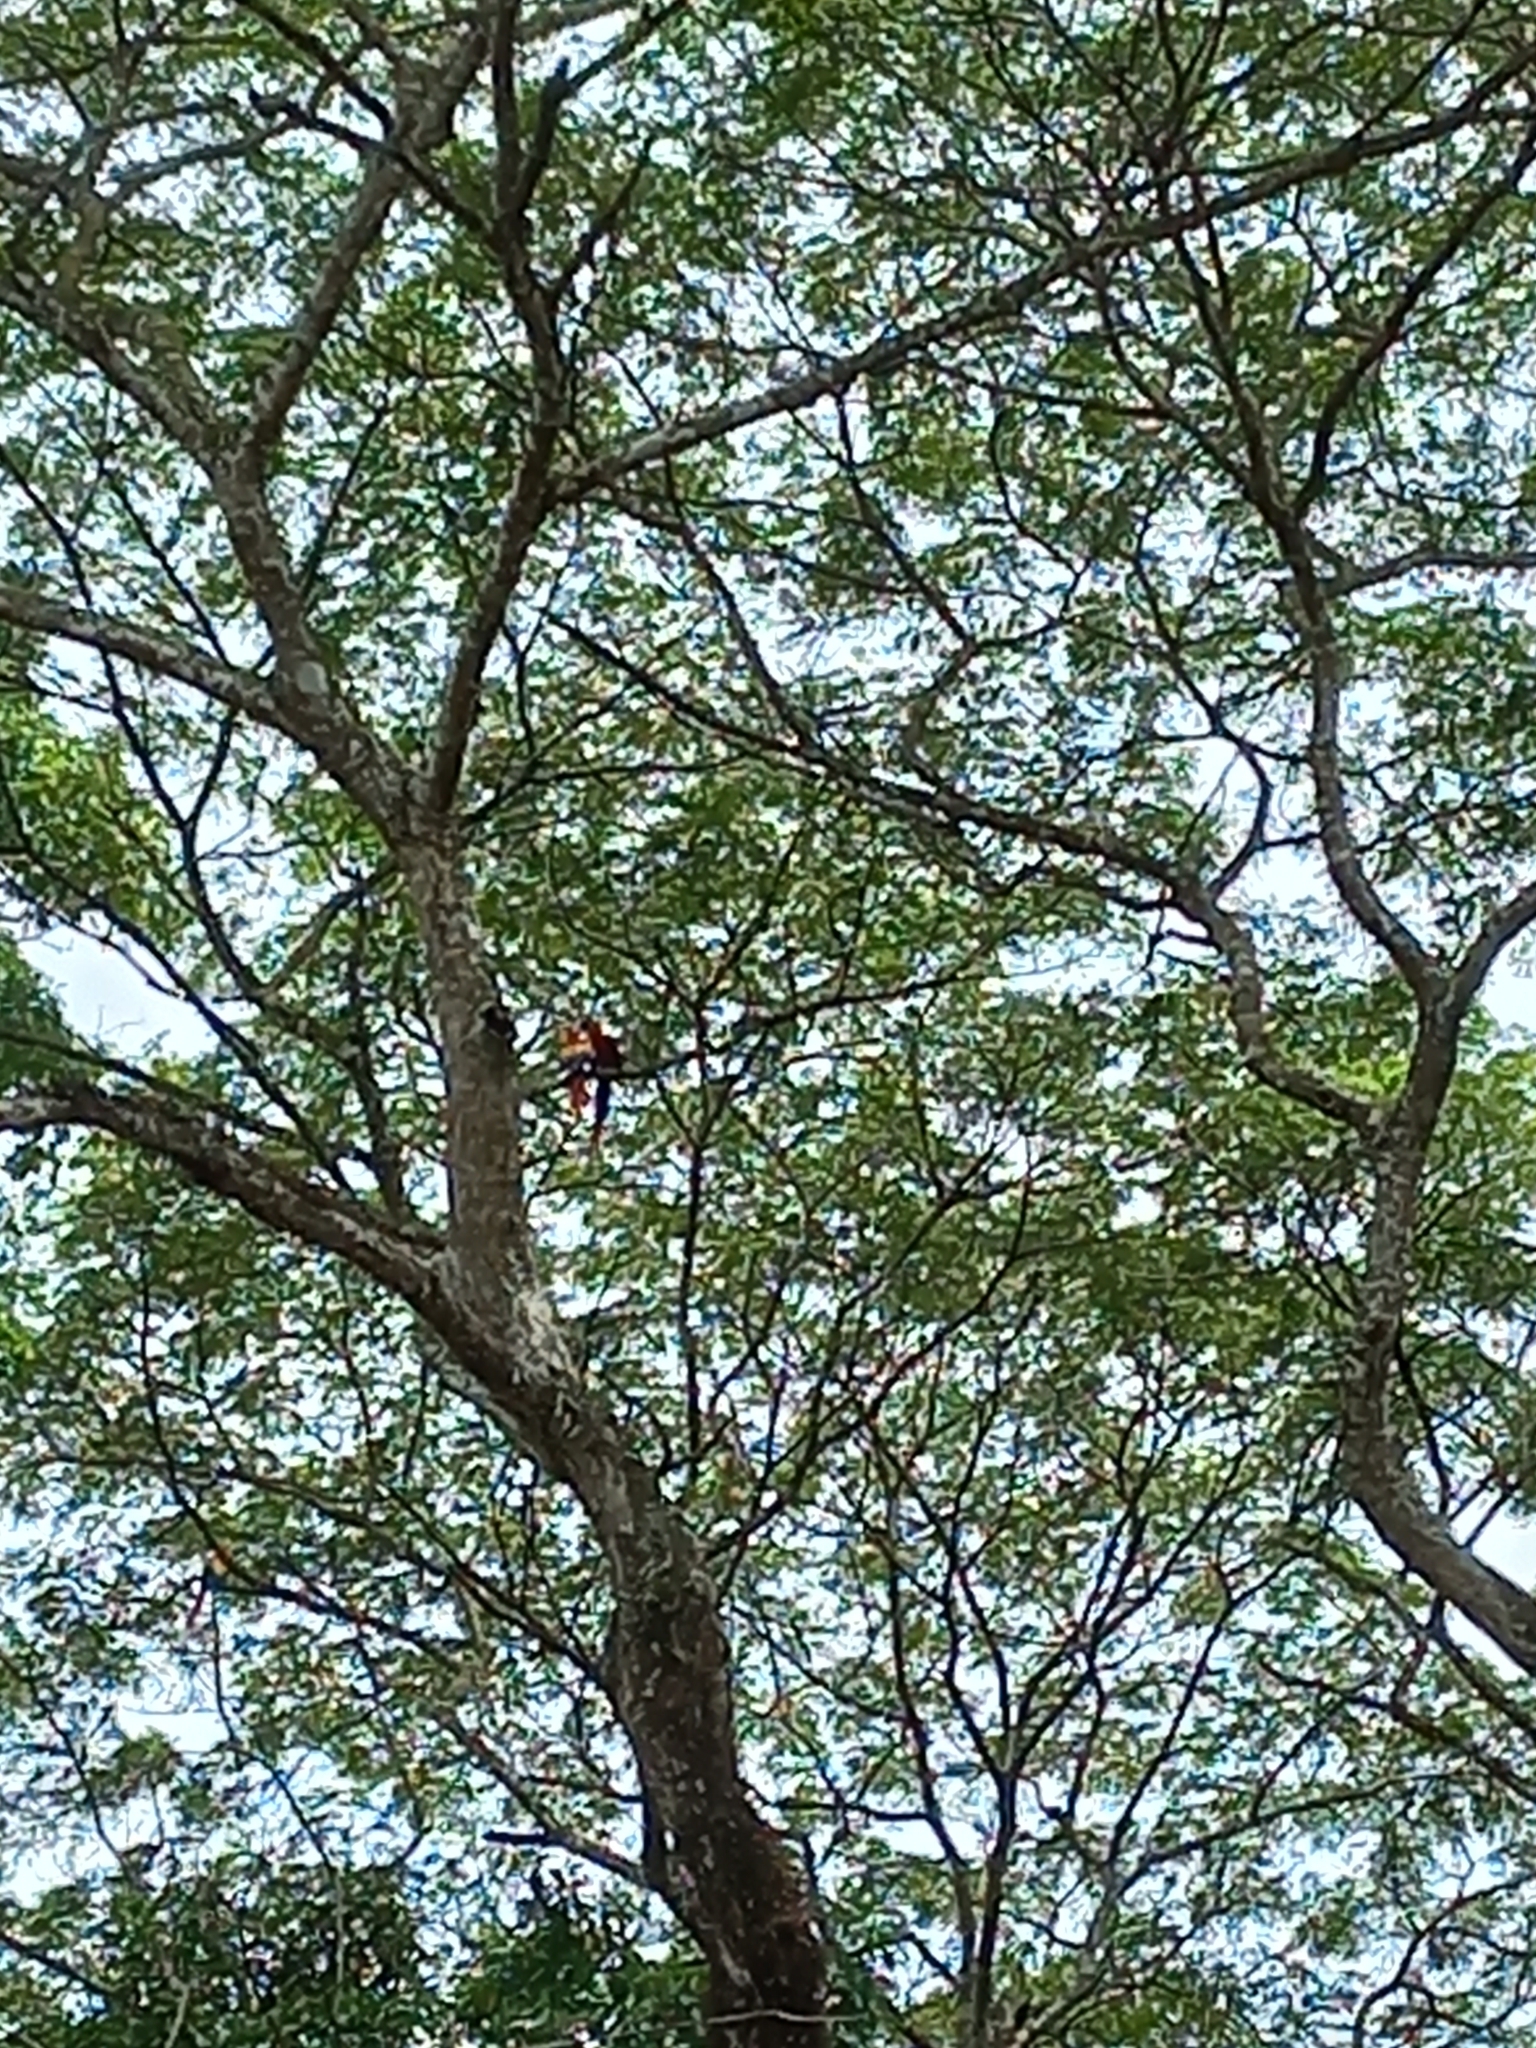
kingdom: Animalia
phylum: Chordata
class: Aves
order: Psittaciformes
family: Psittacidae
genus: Ara
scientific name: Ara macao
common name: Scarlet macaw
